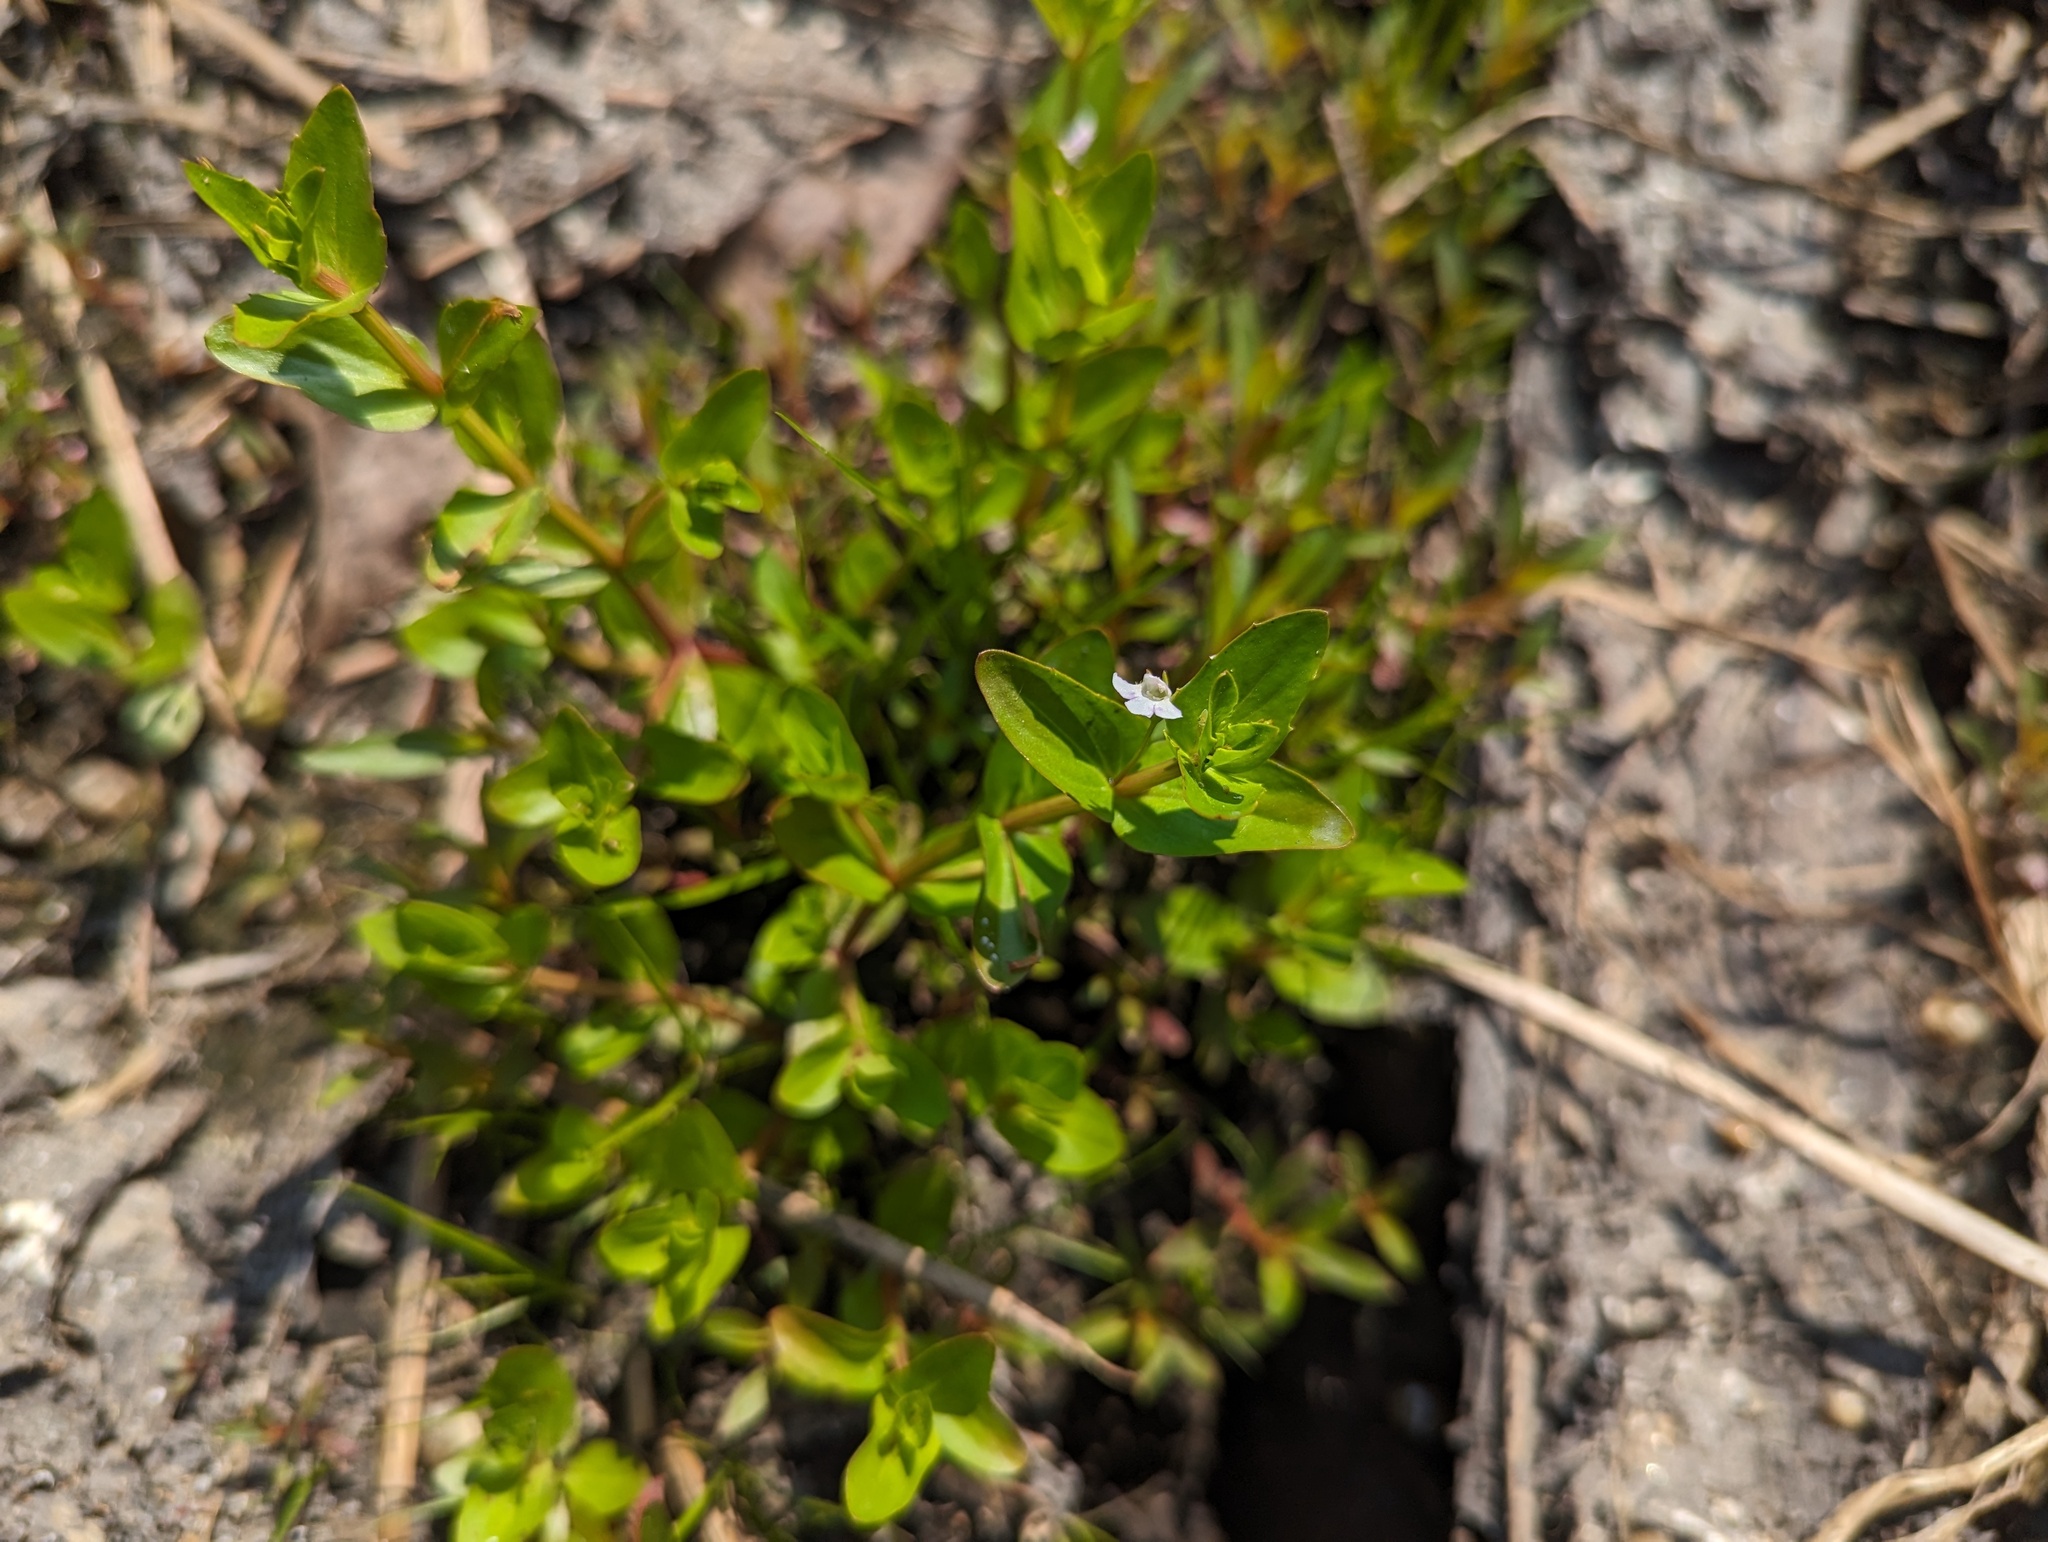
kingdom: Plantae
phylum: Tracheophyta
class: Magnoliopsida
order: Lamiales
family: Linderniaceae
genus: Lindernia
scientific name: Lindernia dubia
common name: Annual false pimpernel
